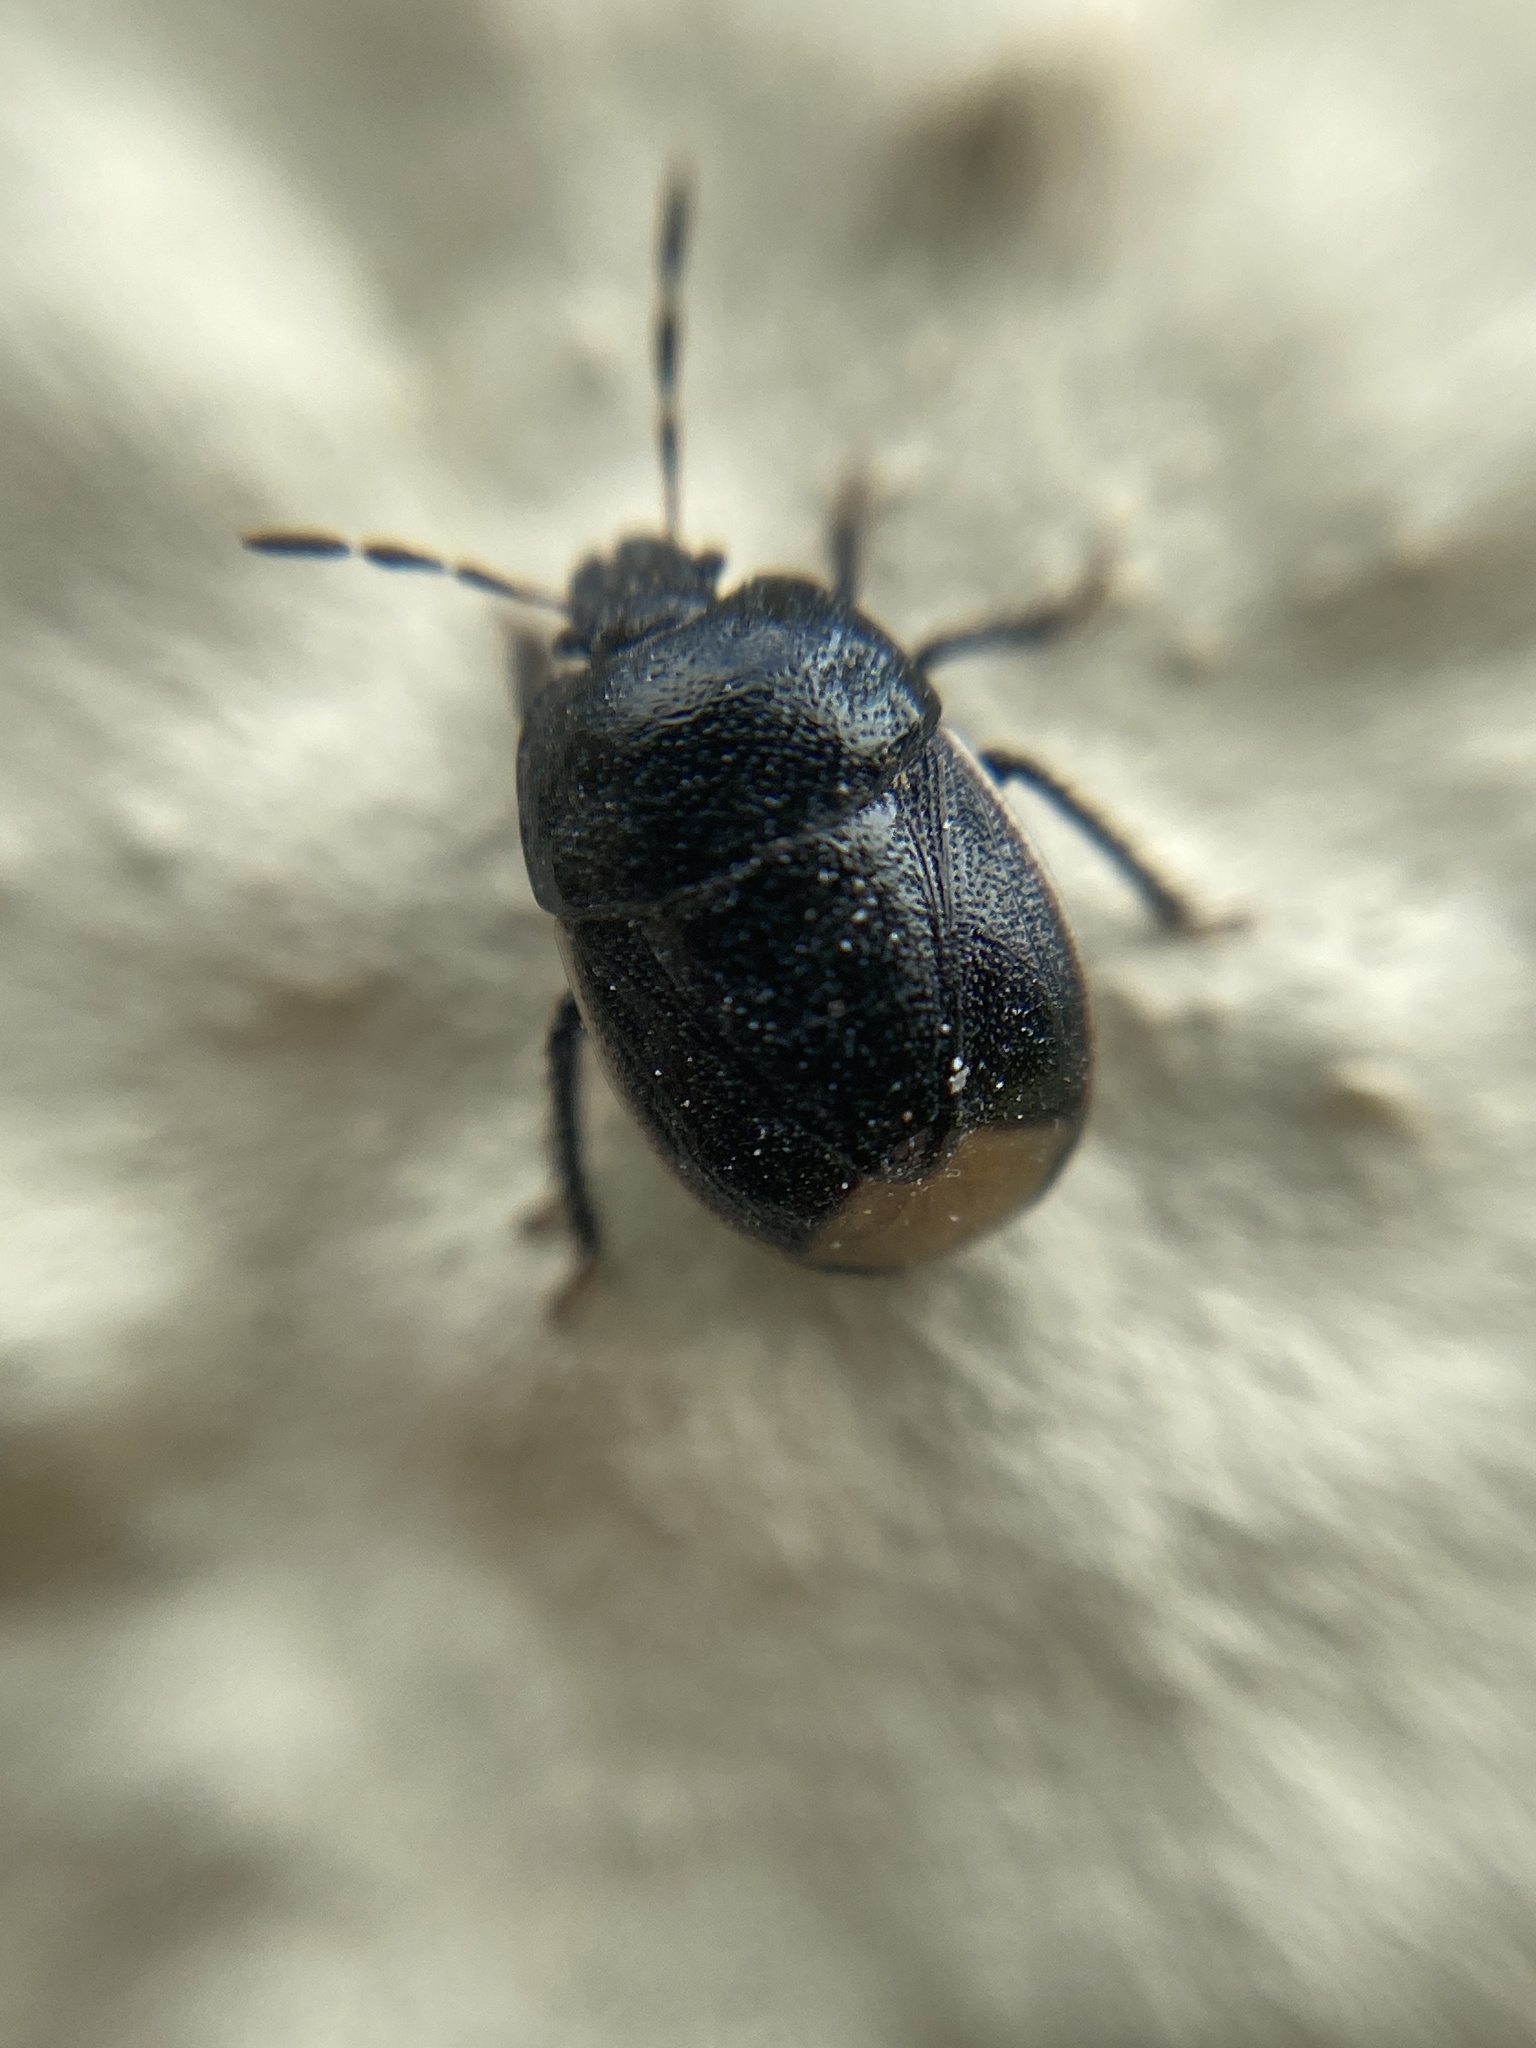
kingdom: Animalia
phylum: Arthropoda
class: Insecta
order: Hemiptera
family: Cydnidae
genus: Legnotus
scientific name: Legnotus limbosus
